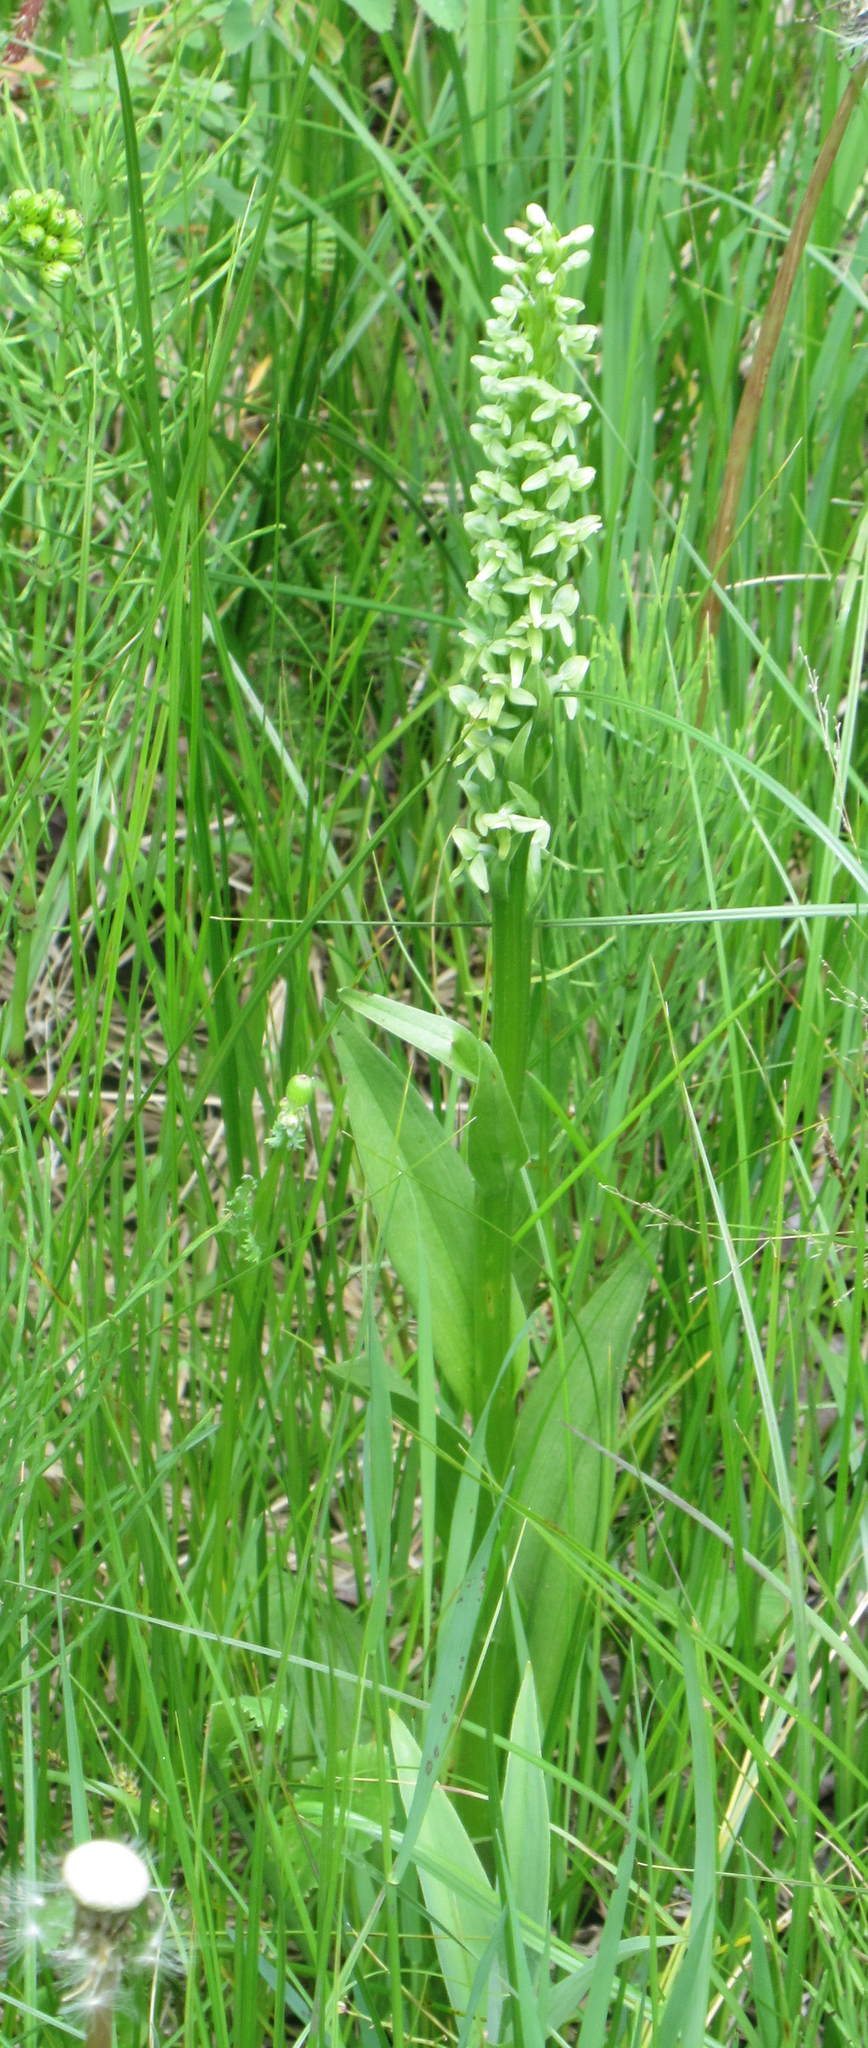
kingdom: Plantae
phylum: Tracheophyta
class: Liliopsida
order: Asparagales
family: Orchidaceae
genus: Platanthera
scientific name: Platanthera huronensis
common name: Fragrant green orchid
